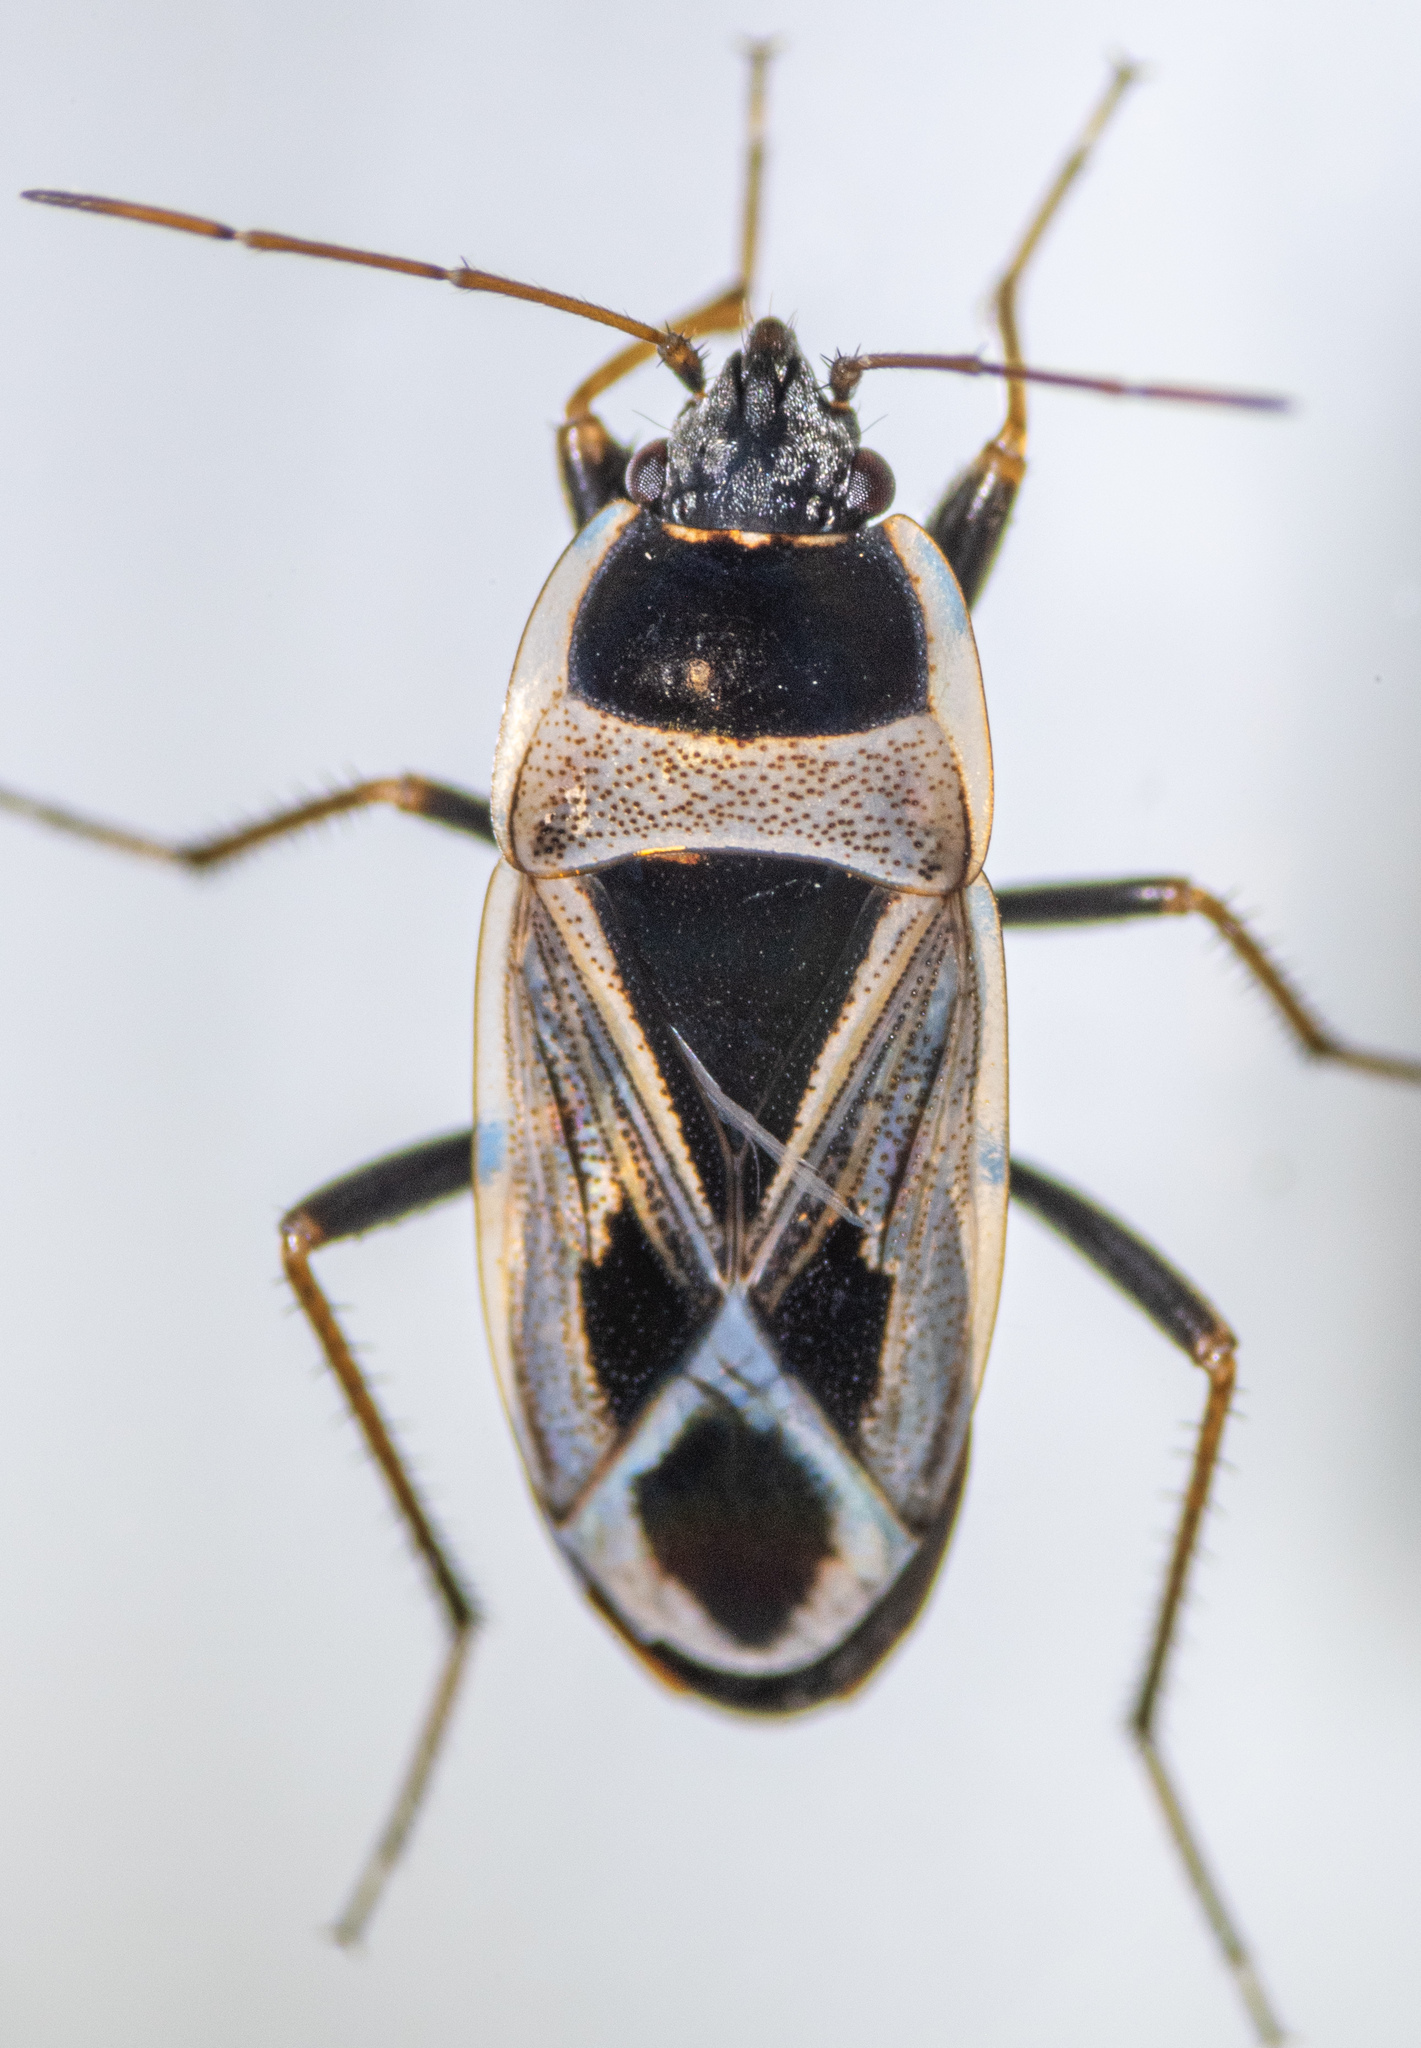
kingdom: Animalia
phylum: Arthropoda
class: Insecta
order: Hemiptera
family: Rhyparochromidae
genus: Xanthochilus
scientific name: Xanthochilus saturnius
